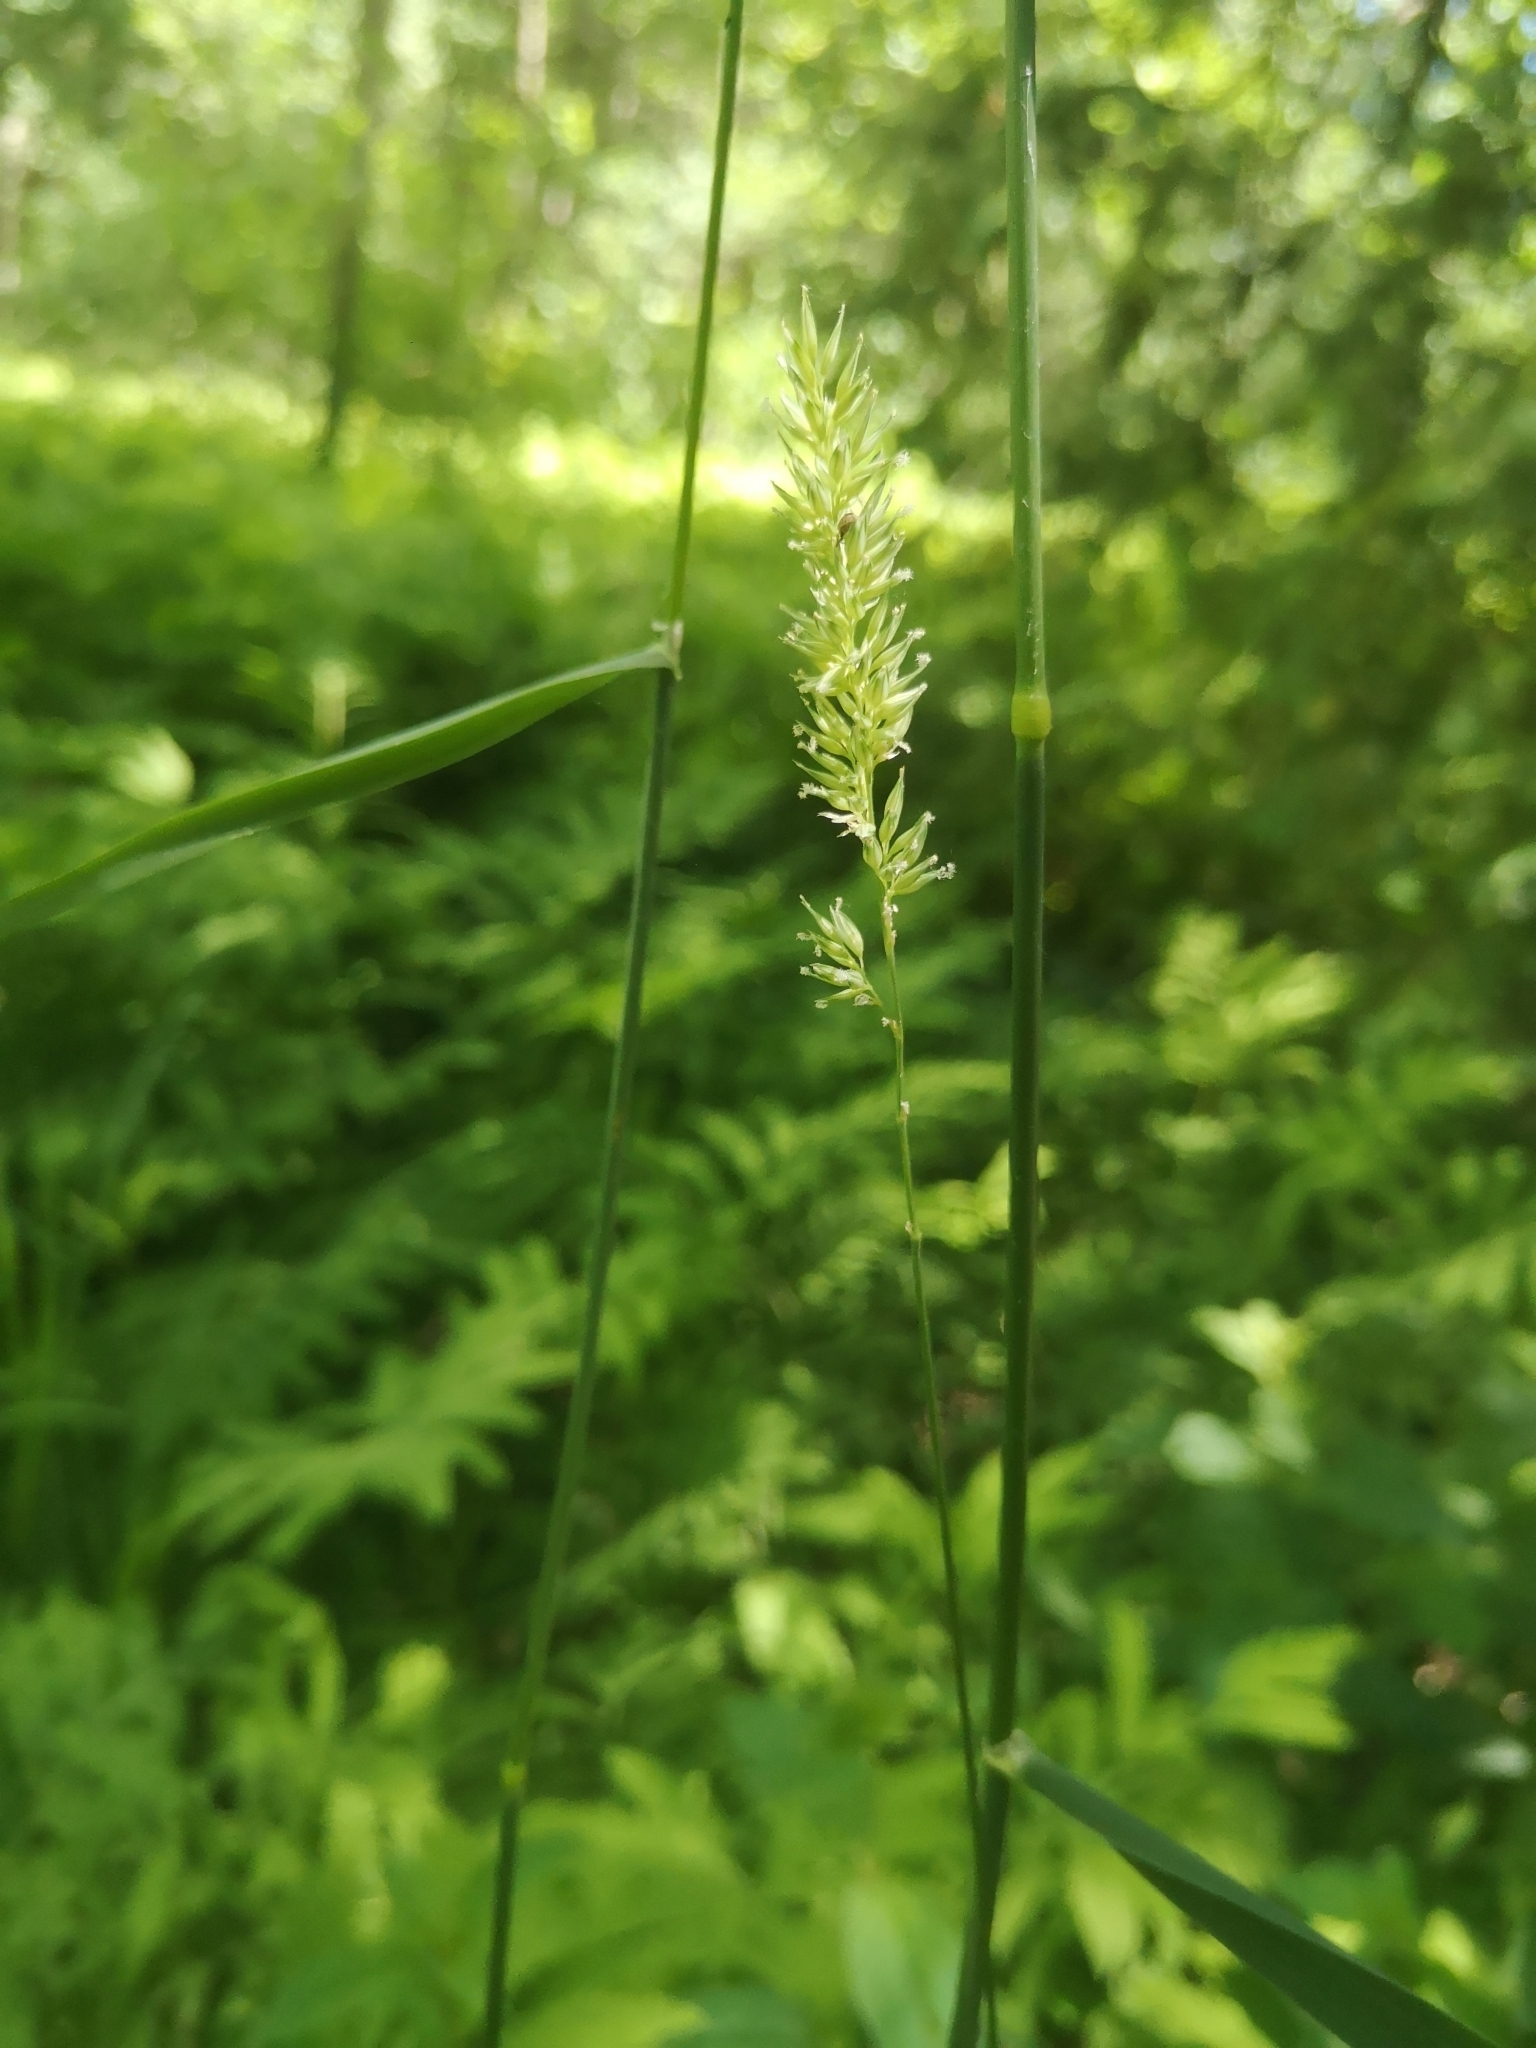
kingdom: Plantae
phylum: Tracheophyta
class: Liliopsida
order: Poales
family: Poaceae
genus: Phalaris
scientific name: Phalaris arundinacea
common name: Reed canary-grass
